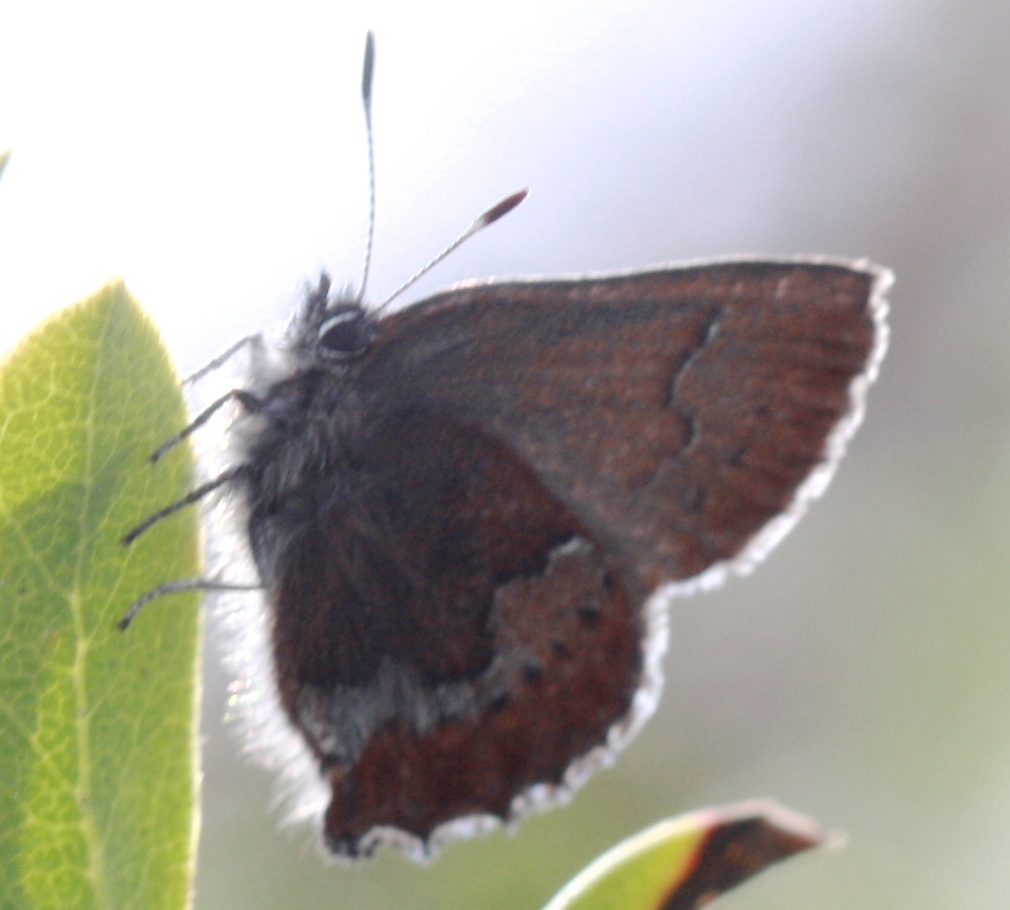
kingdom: Animalia
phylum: Arthropoda
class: Insecta
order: Lepidoptera
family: Lycaenidae
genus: Callophrys
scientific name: Callophrys mossii
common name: Moss' elfin
